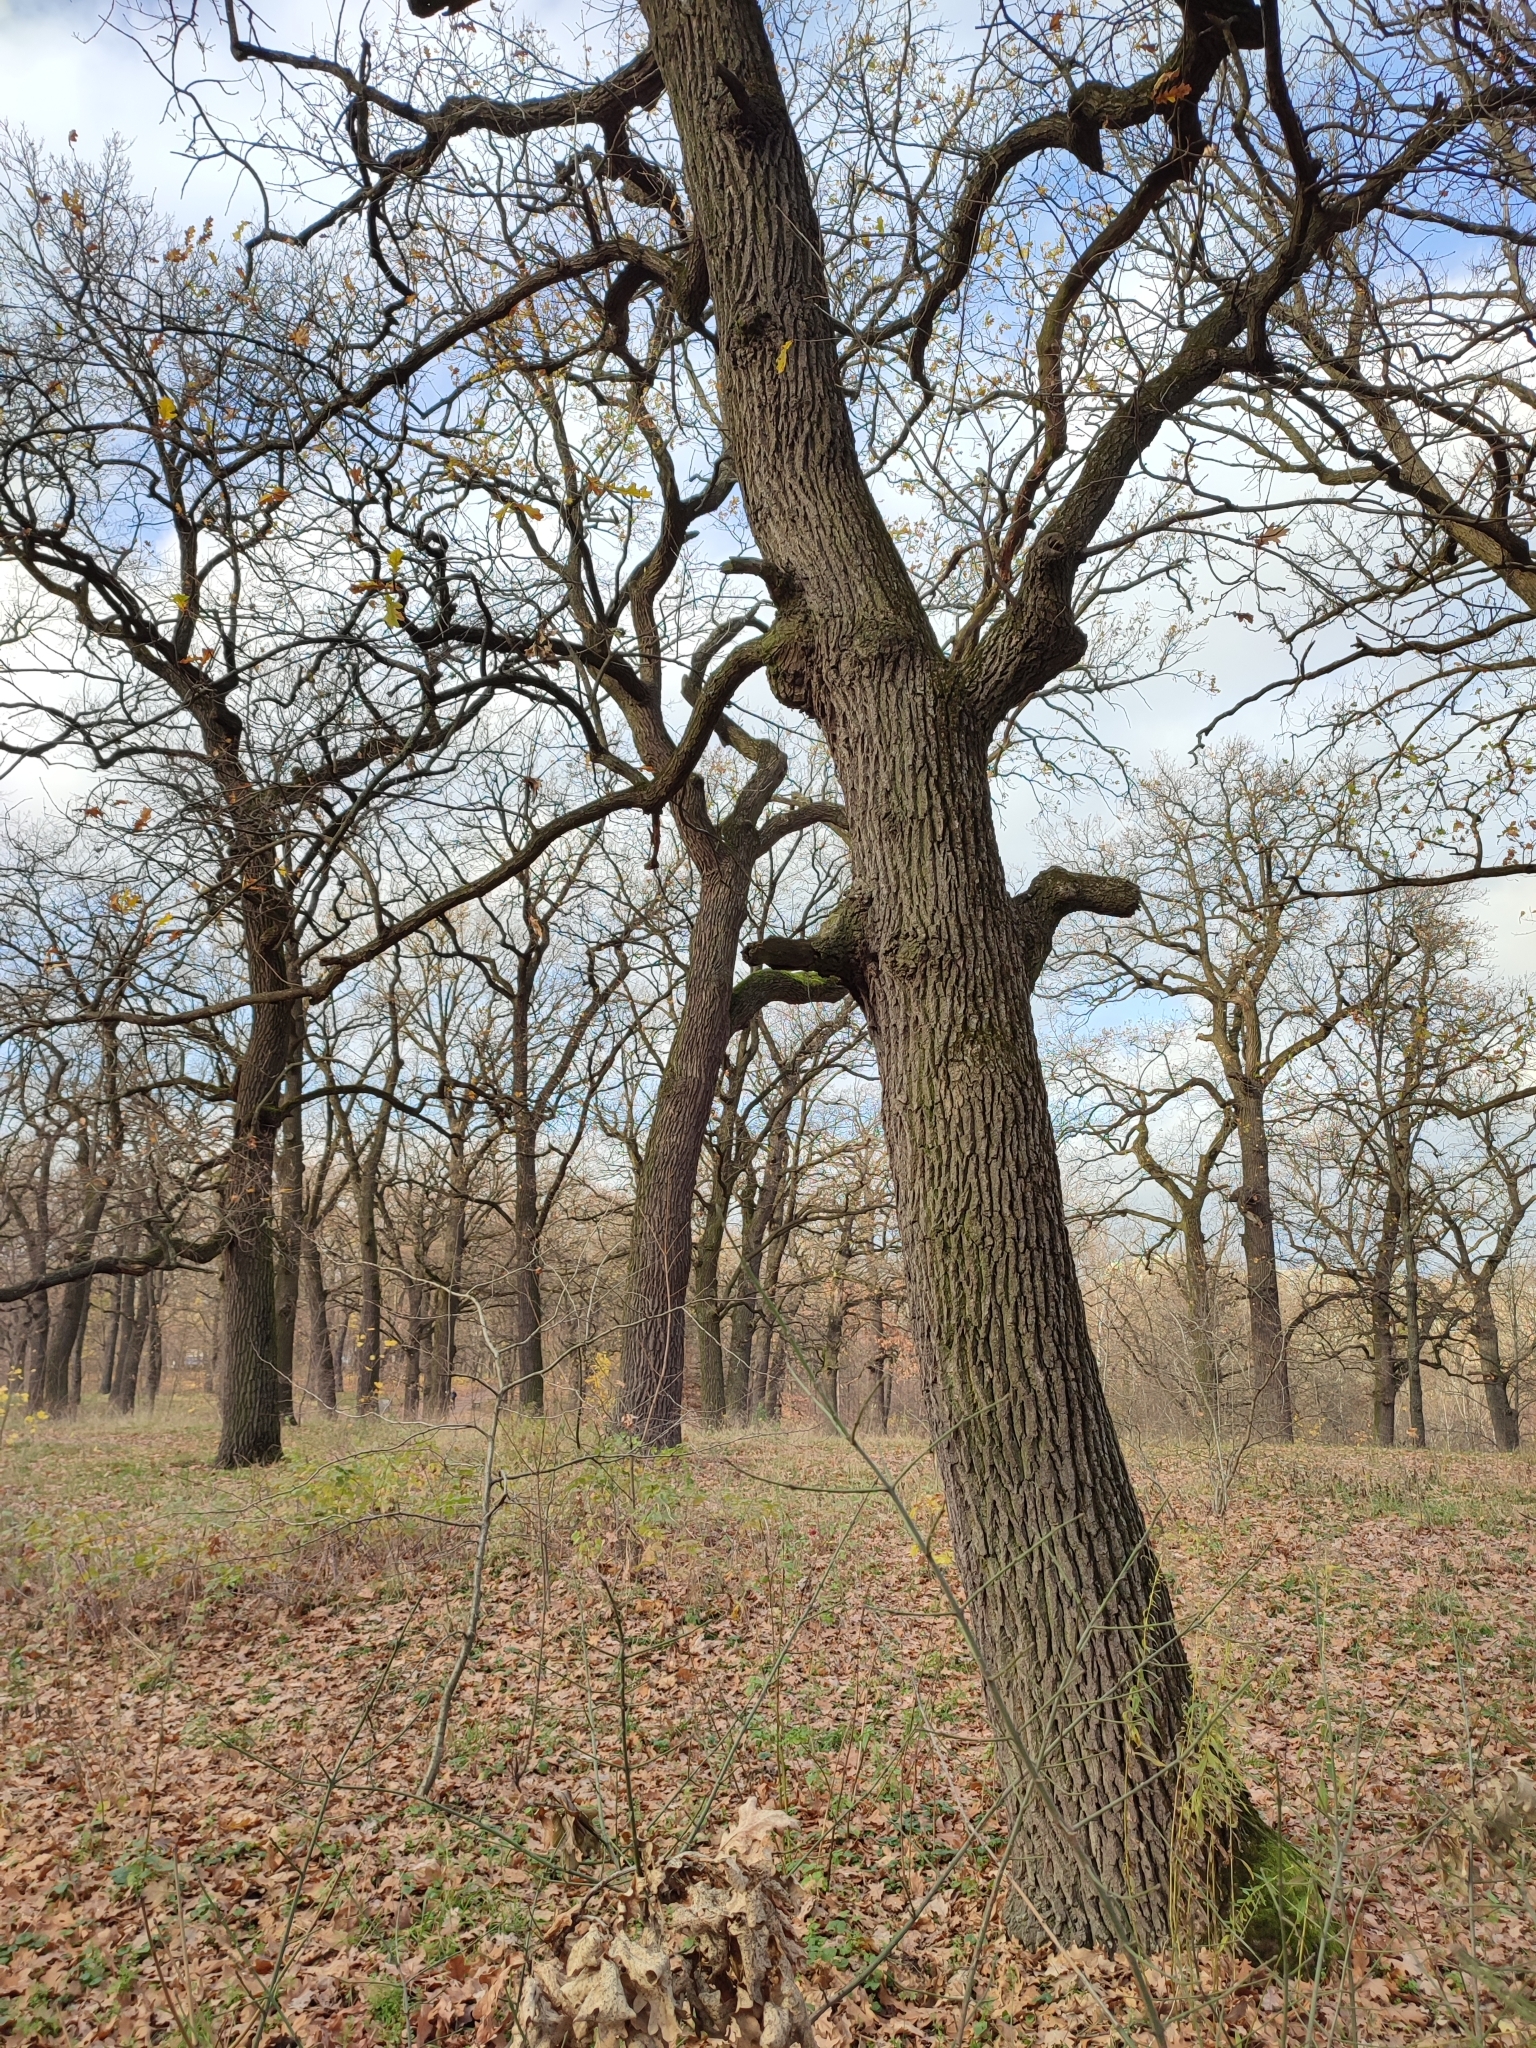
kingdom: Plantae
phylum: Tracheophyta
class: Magnoliopsida
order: Fagales
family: Fagaceae
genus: Quercus
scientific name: Quercus robur
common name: Pedunculate oak
